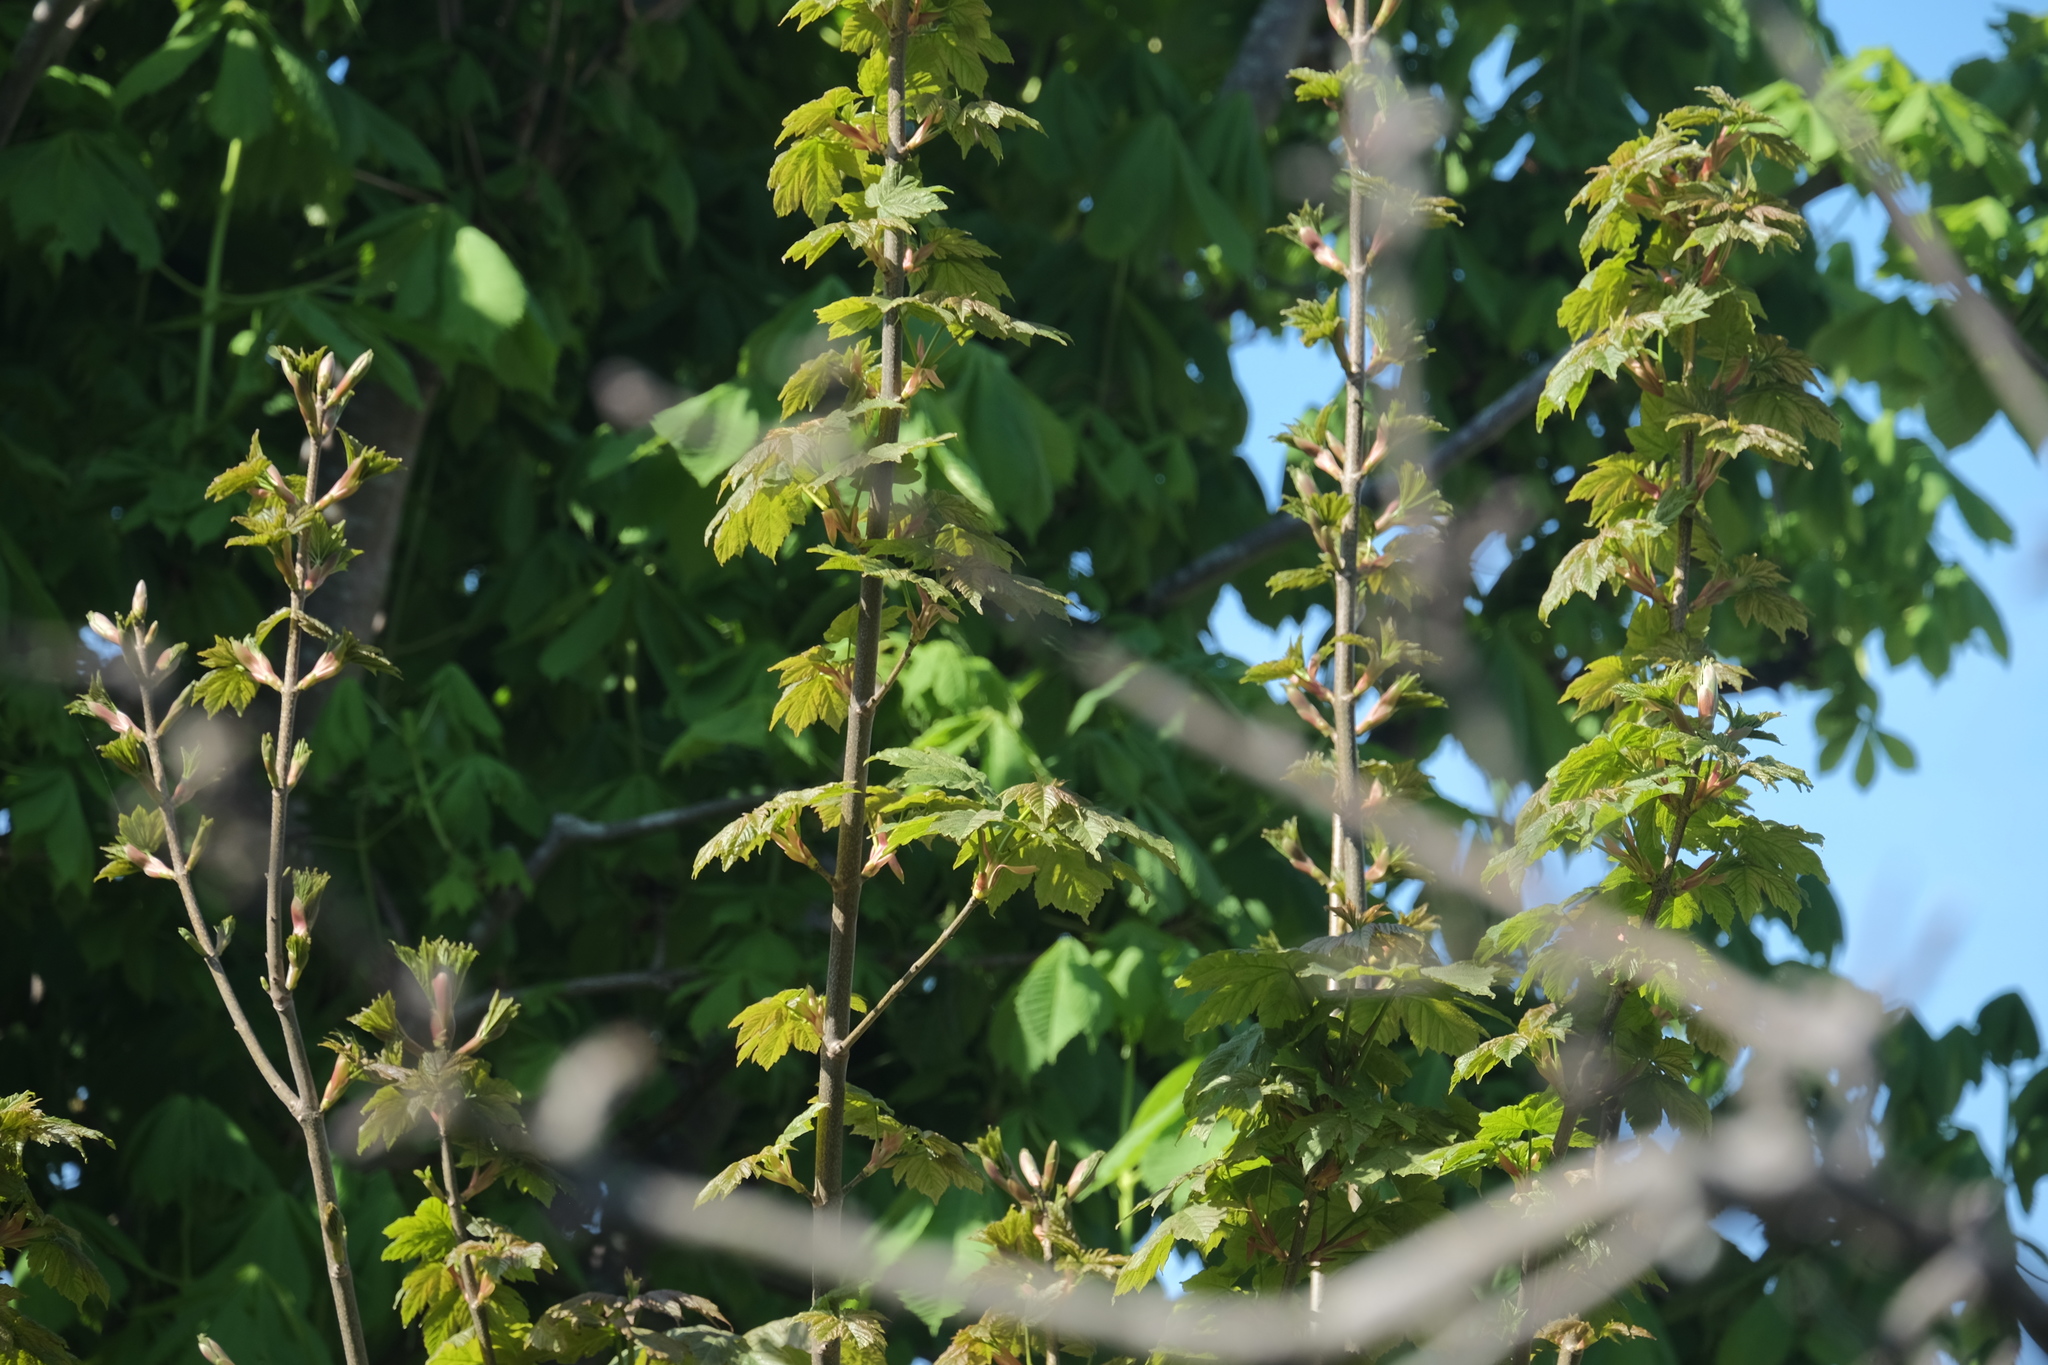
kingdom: Plantae
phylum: Tracheophyta
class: Magnoliopsida
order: Sapindales
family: Sapindaceae
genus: Acer
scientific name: Acer pseudoplatanus
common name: Sycamore
